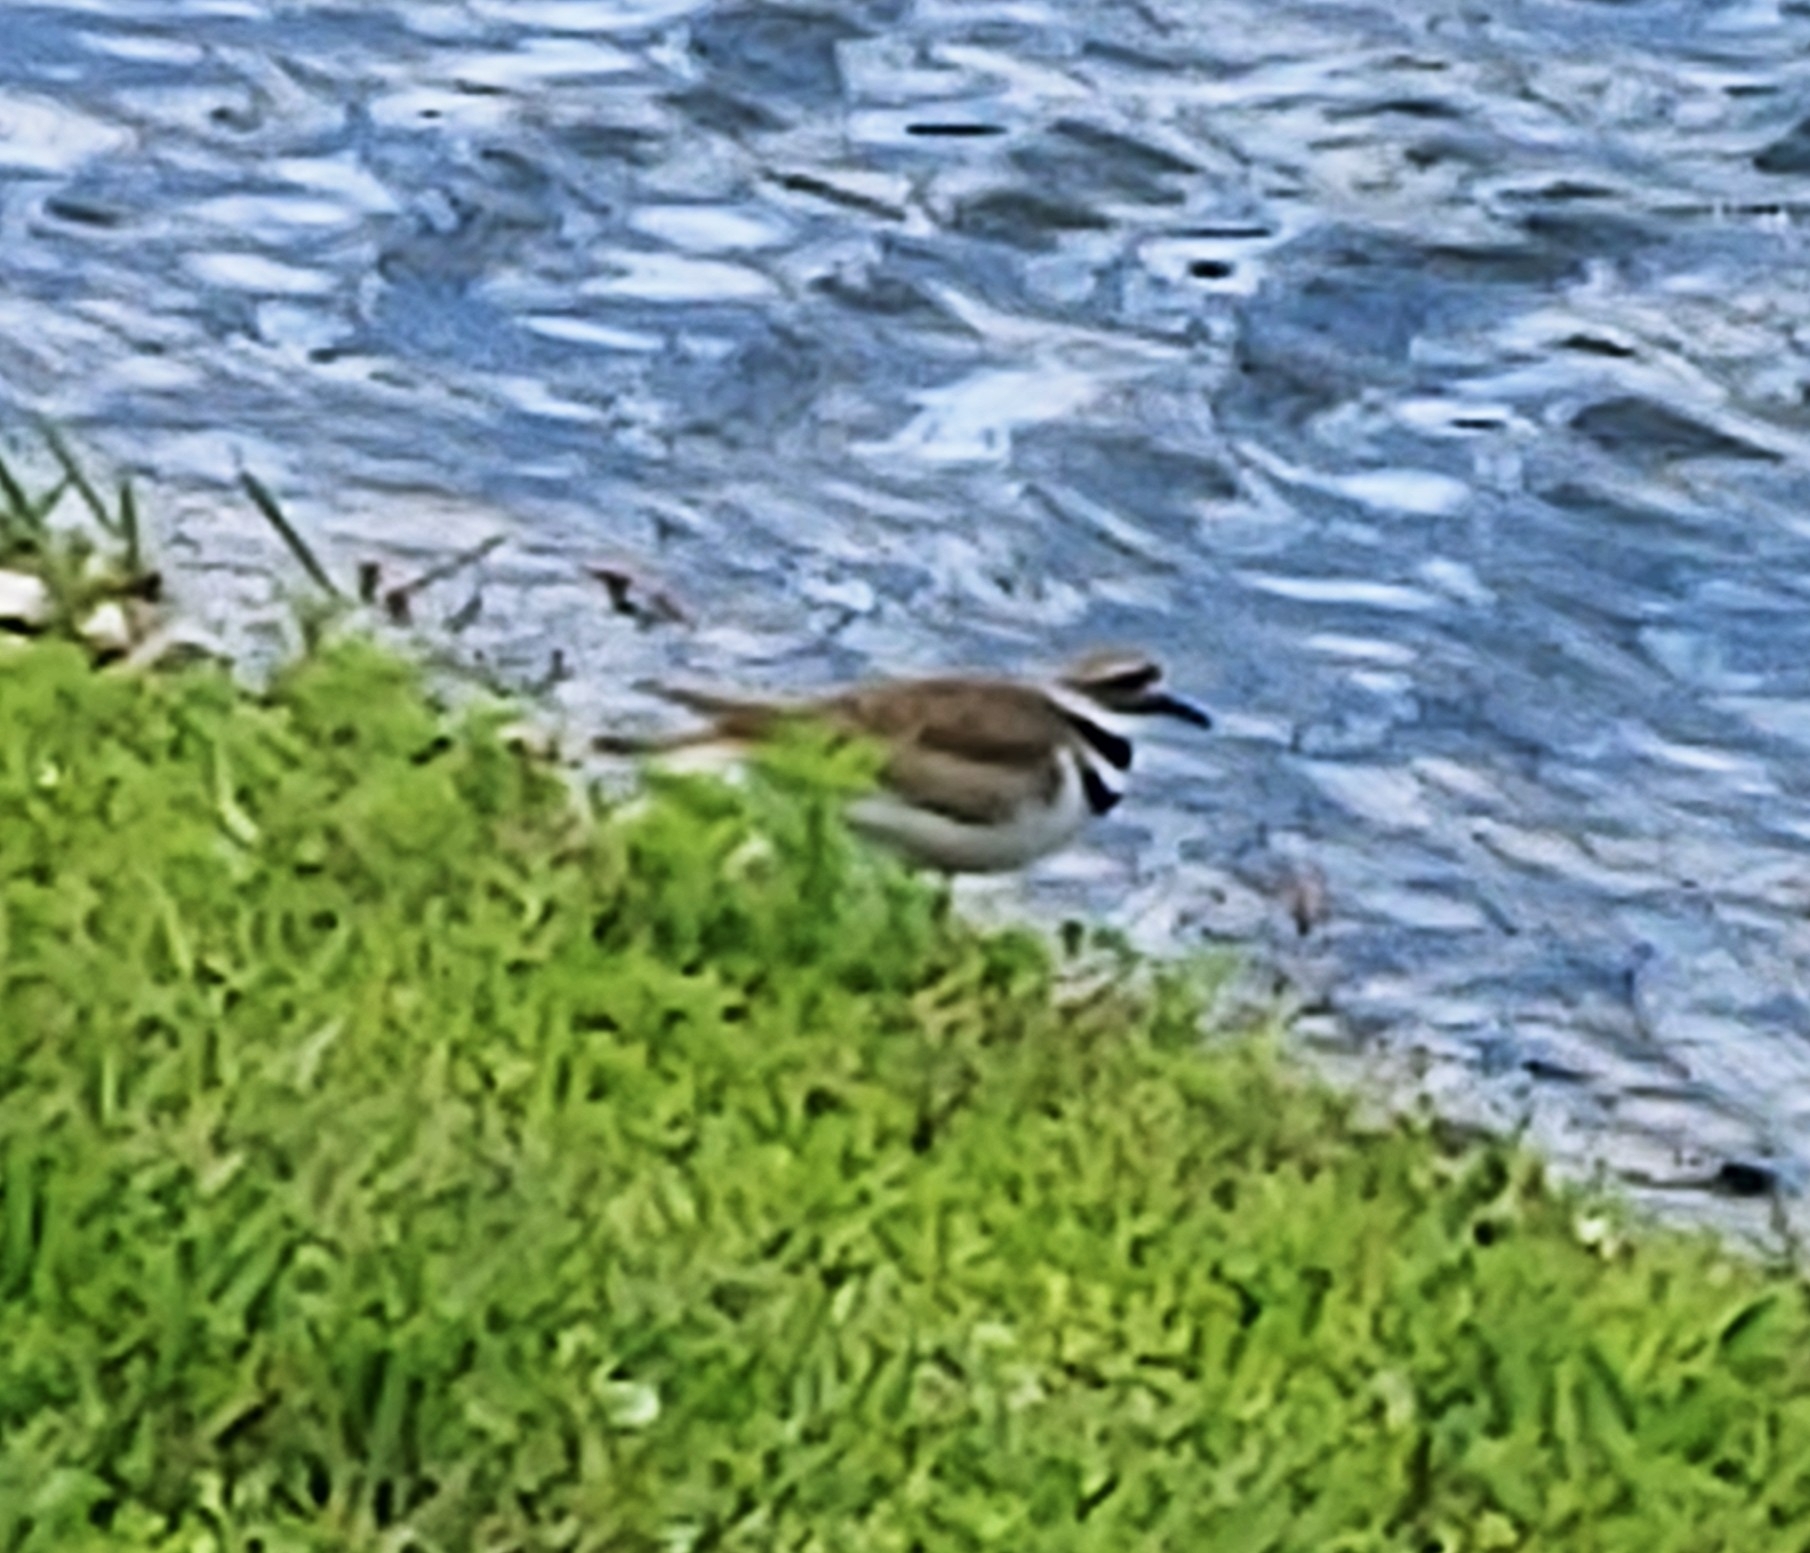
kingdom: Animalia
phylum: Chordata
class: Aves
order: Charadriiformes
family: Charadriidae
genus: Charadrius
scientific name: Charadrius vociferus
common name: Killdeer
